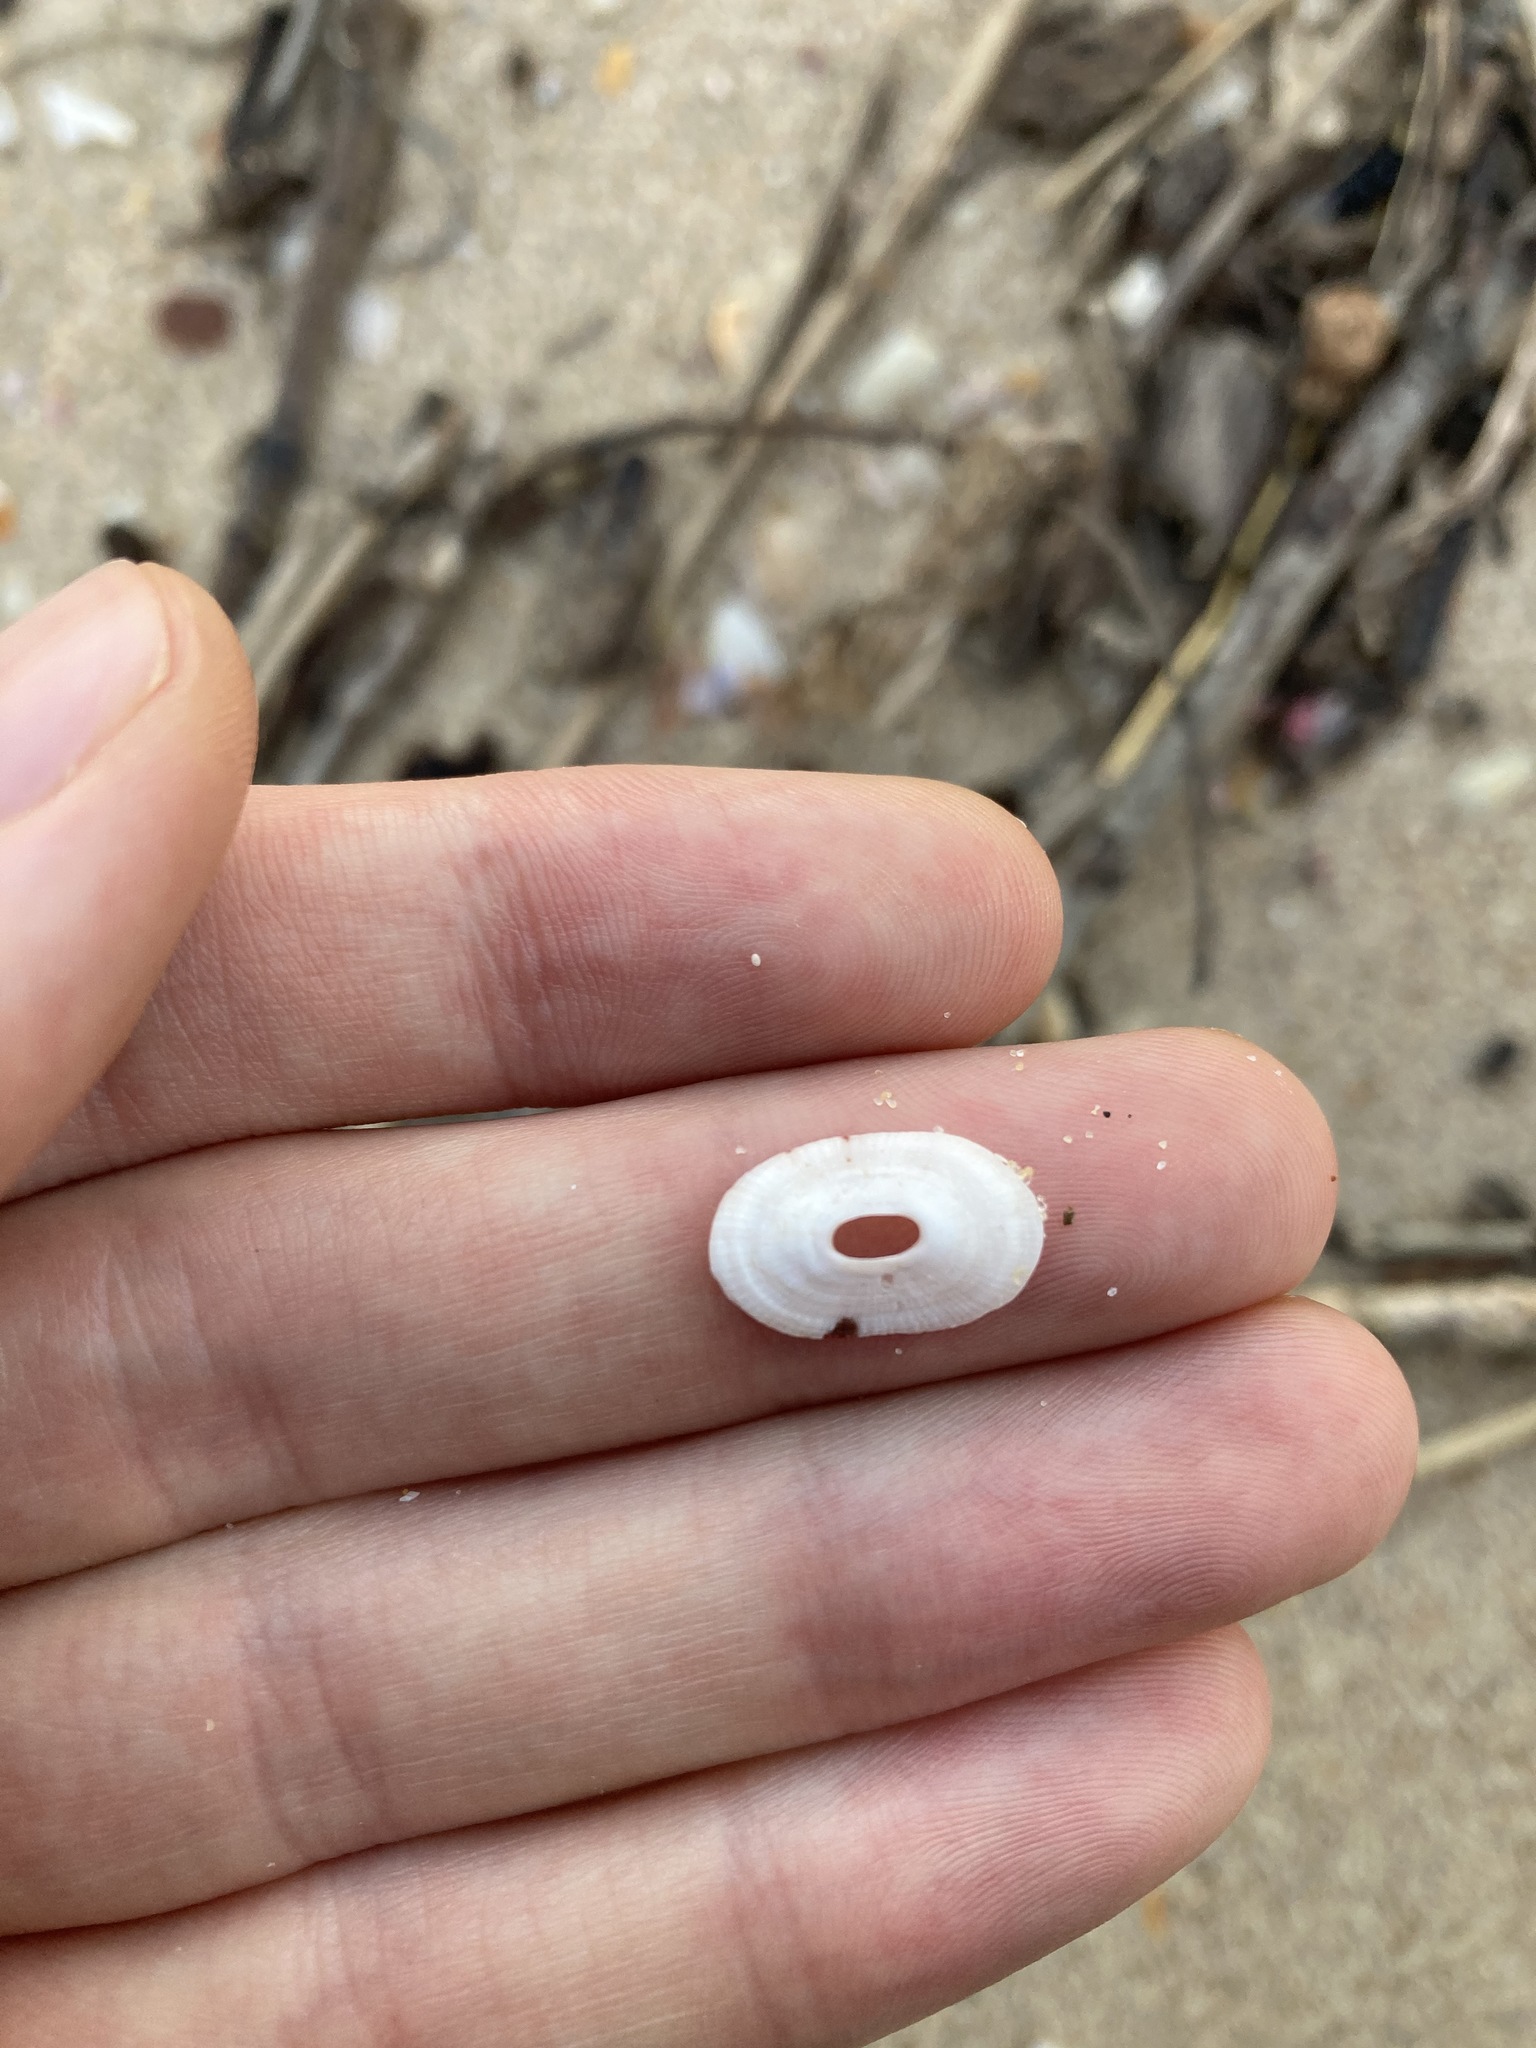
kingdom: Animalia
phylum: Mollusca
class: Gastropoda
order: Lepetellida
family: Fissurellidae
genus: Amblychilepas
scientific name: Amblychilepas nigrita
